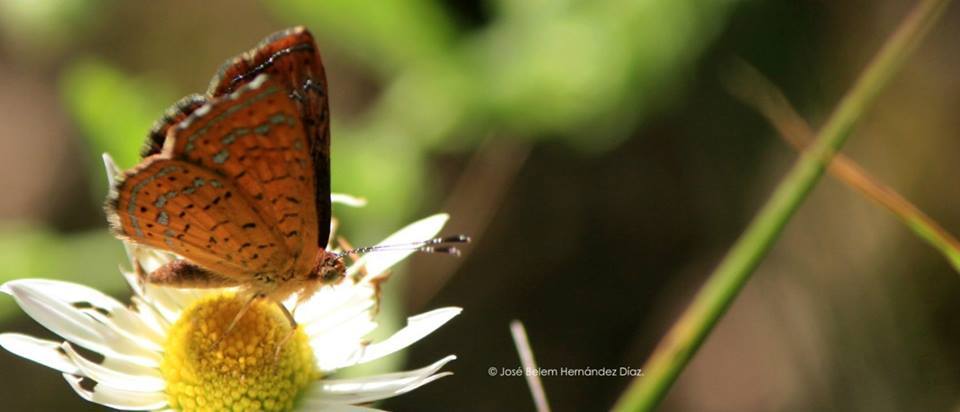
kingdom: Animalia
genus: Calephelis
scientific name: Calephelis perditalis
